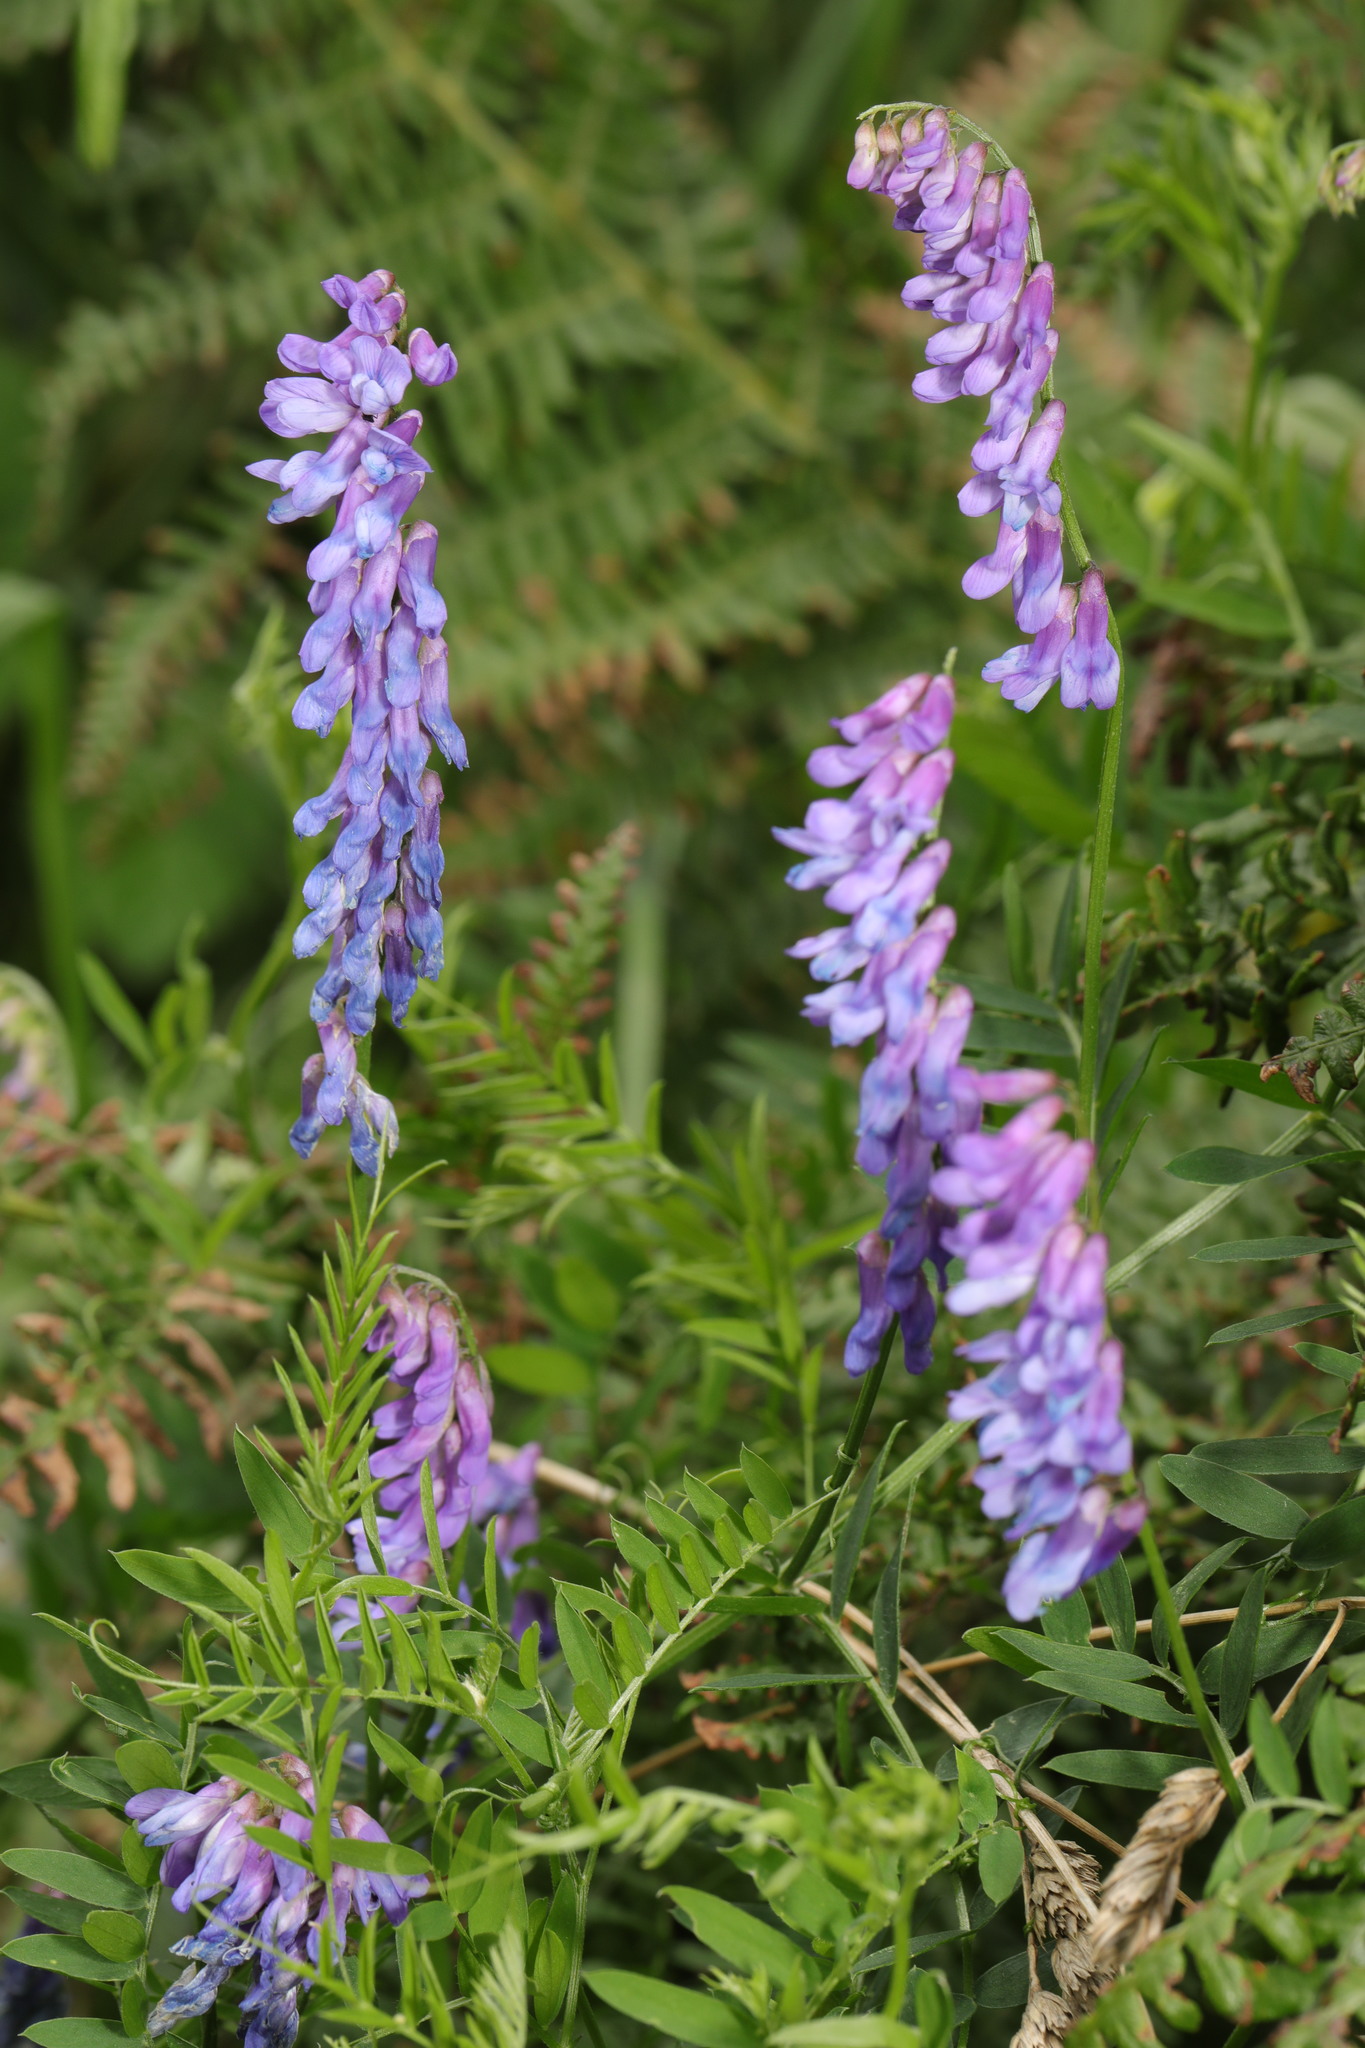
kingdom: Plantae
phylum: Tracheophyta
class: Magnoliopsida
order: Fabales
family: Fabaceae
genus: Vicia
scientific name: Vicia cracca
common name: Bird vetch
